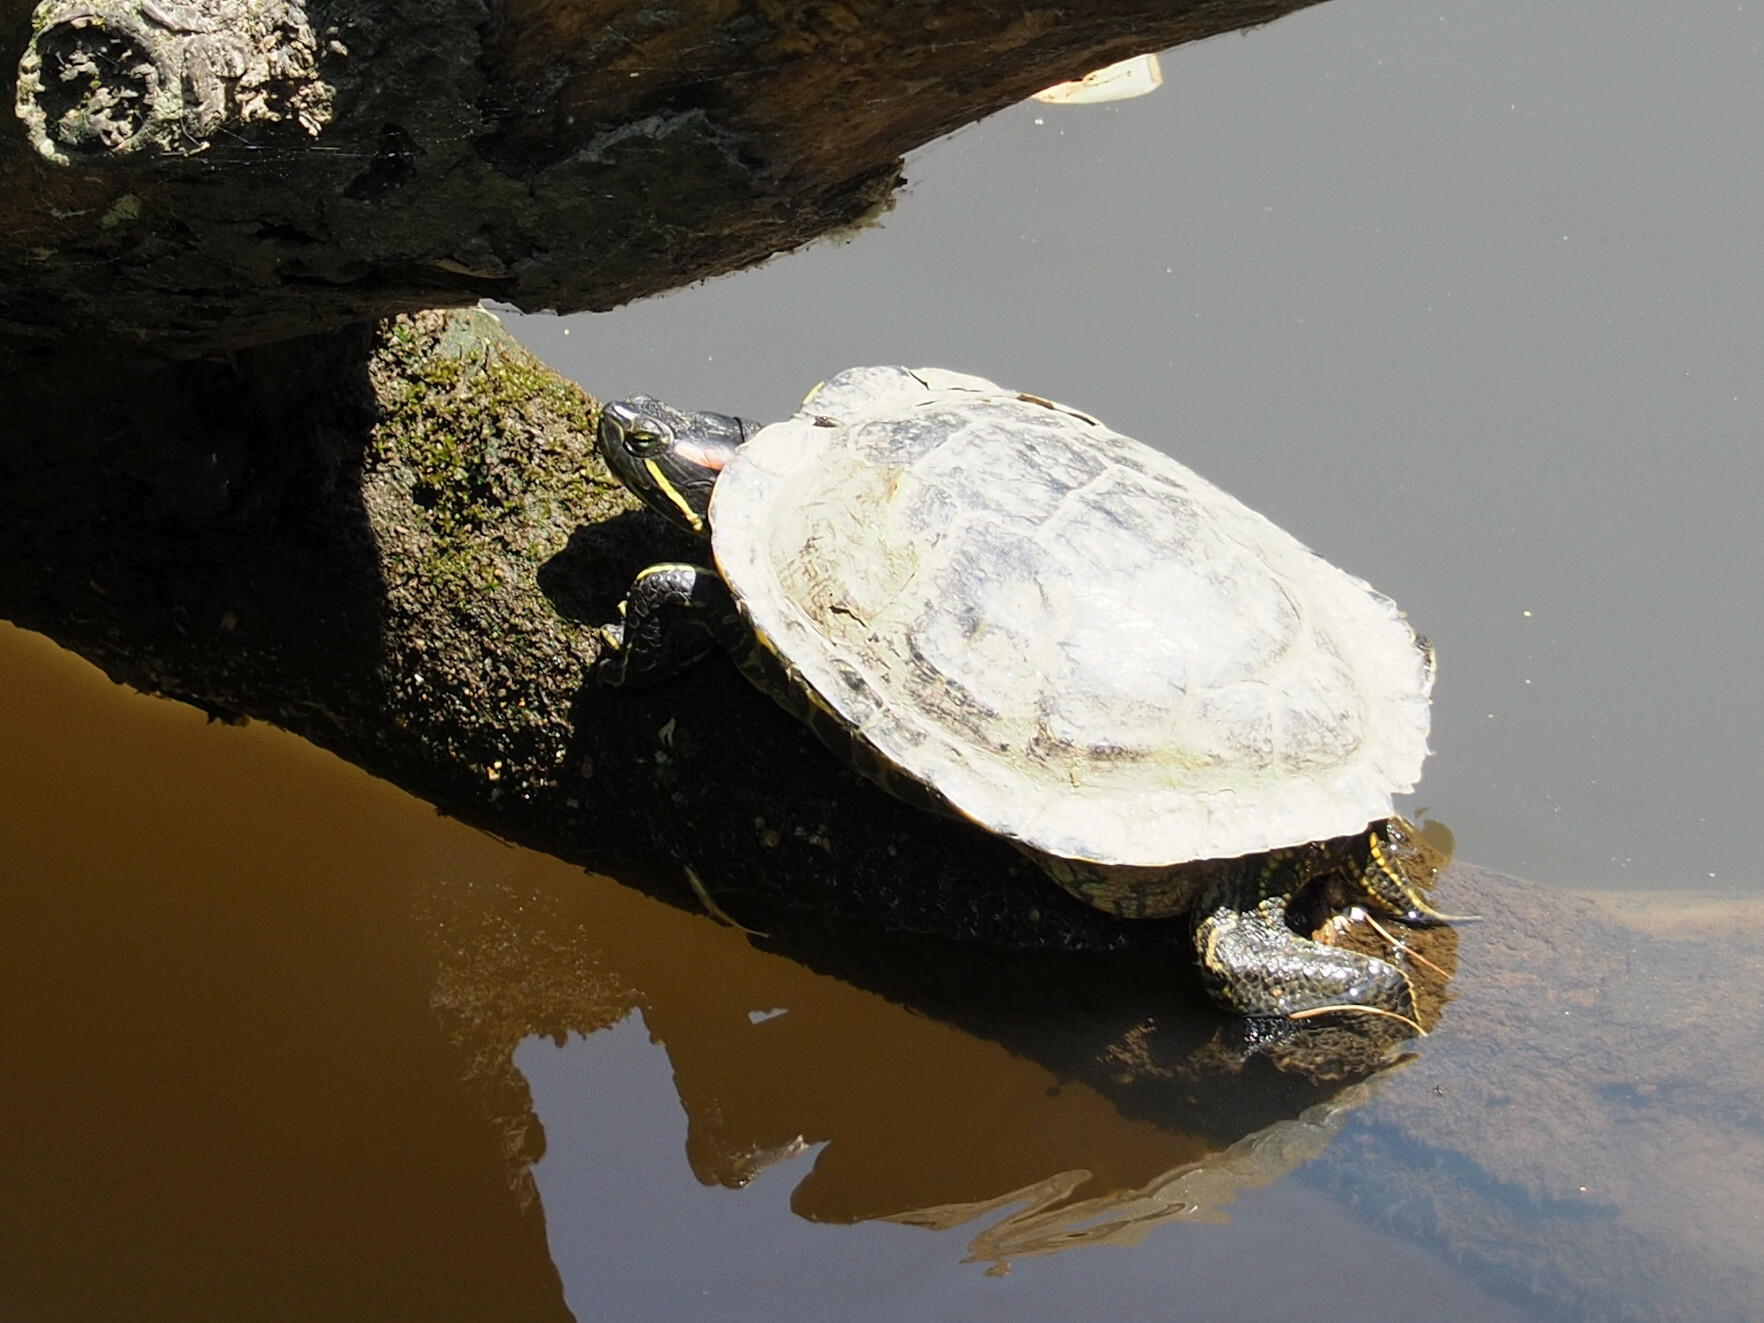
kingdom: Animalia
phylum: Chordata
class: Testudines
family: Emydidae
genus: Trachemys
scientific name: Trachemys scripta
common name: Slider
